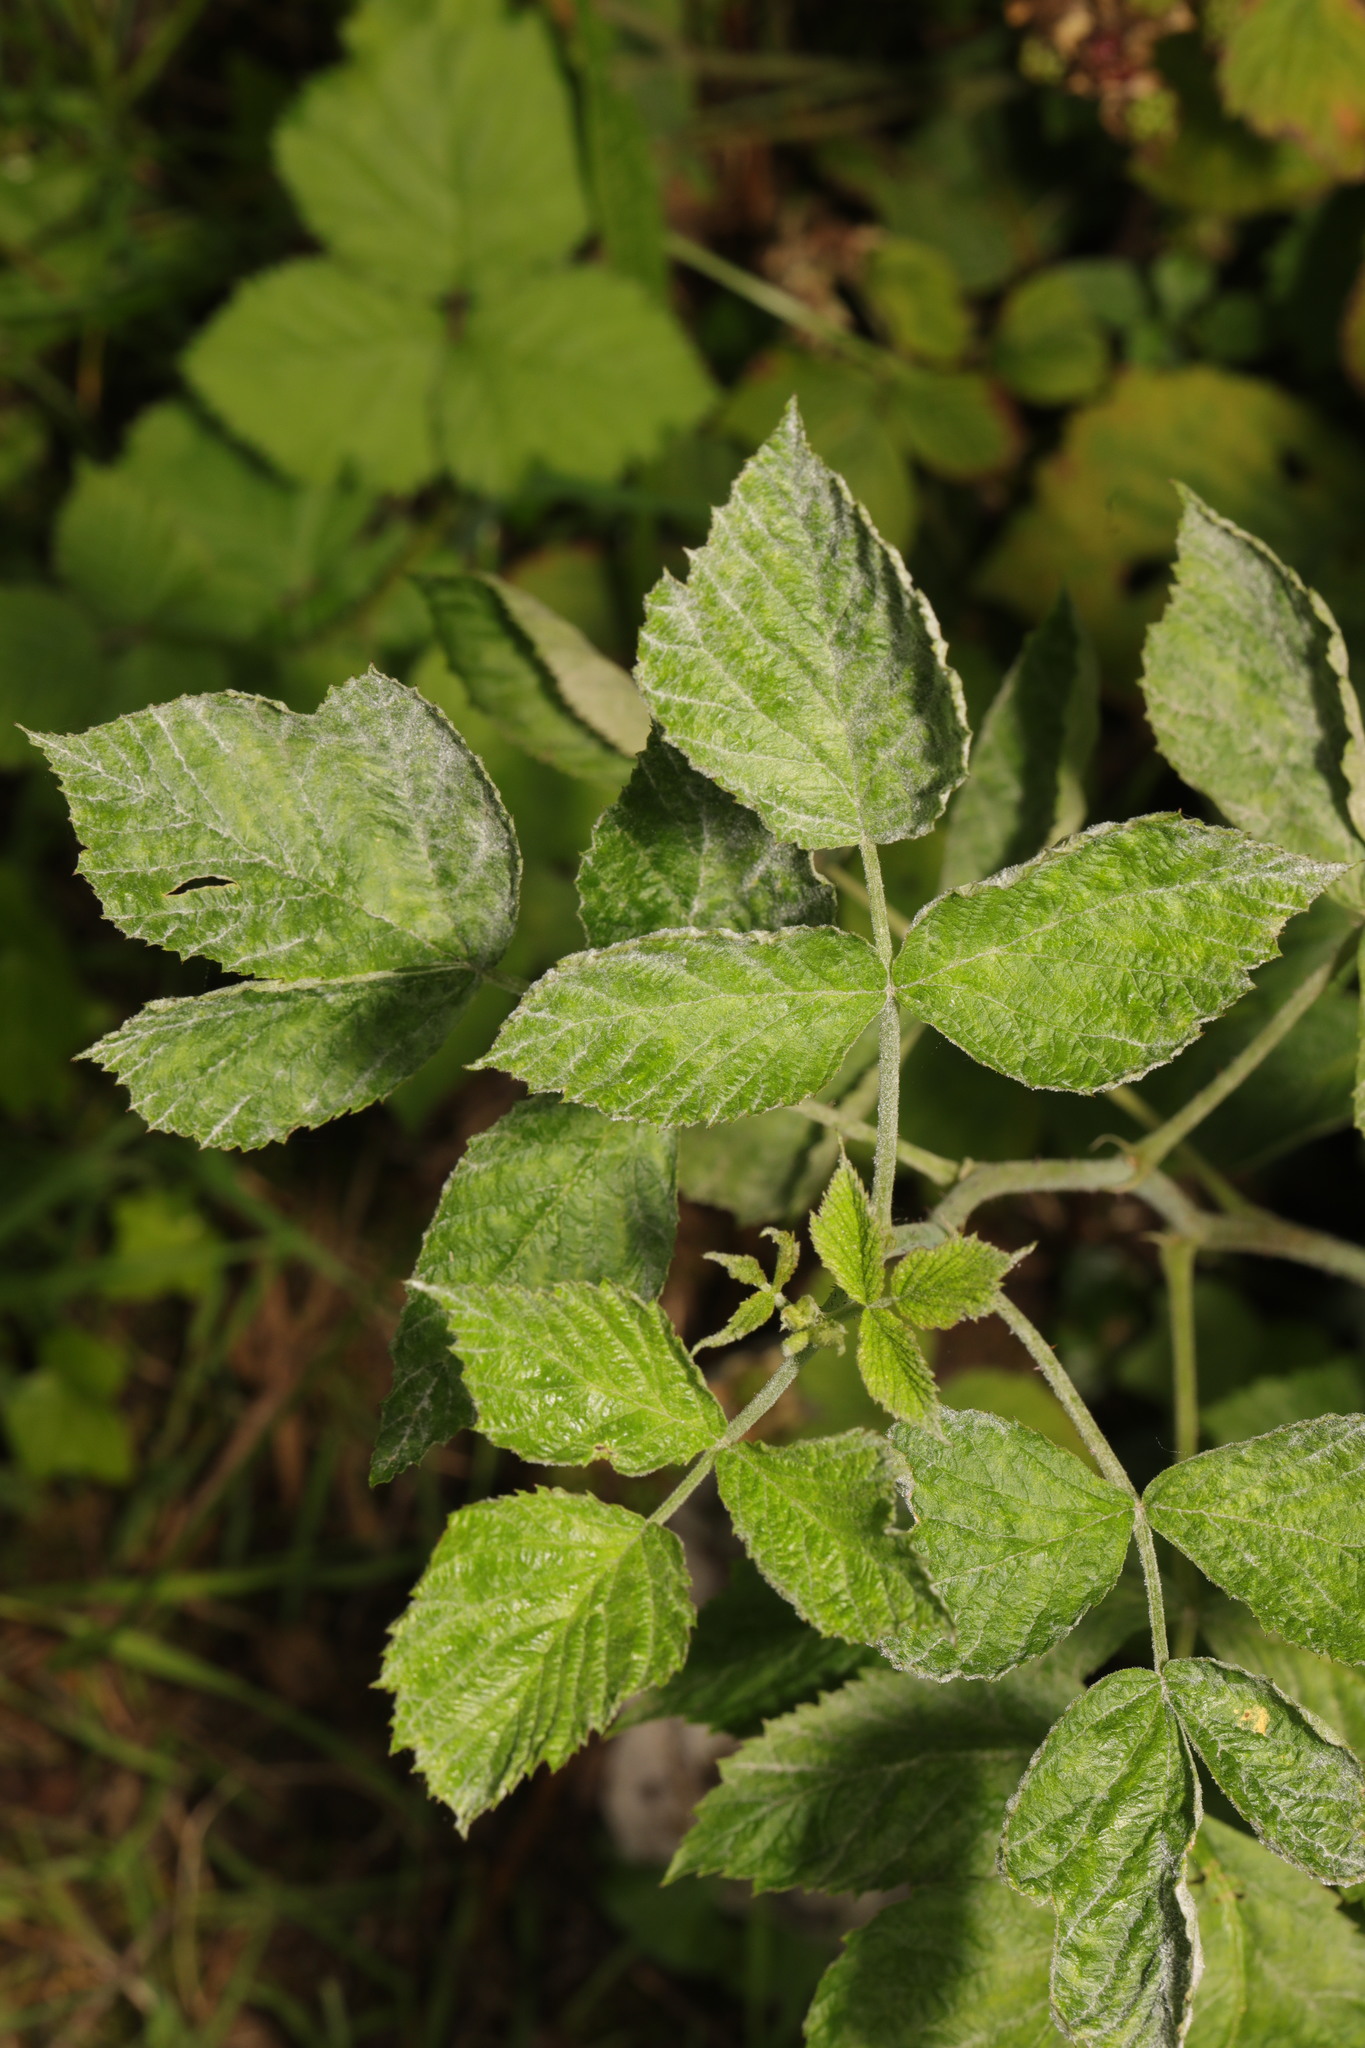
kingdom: Plantae
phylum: Tracheophyta
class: Magnoliopsida
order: Rosales
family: Rosaceae
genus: Rubus
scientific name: Rubus idaeus
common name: Raspberry
